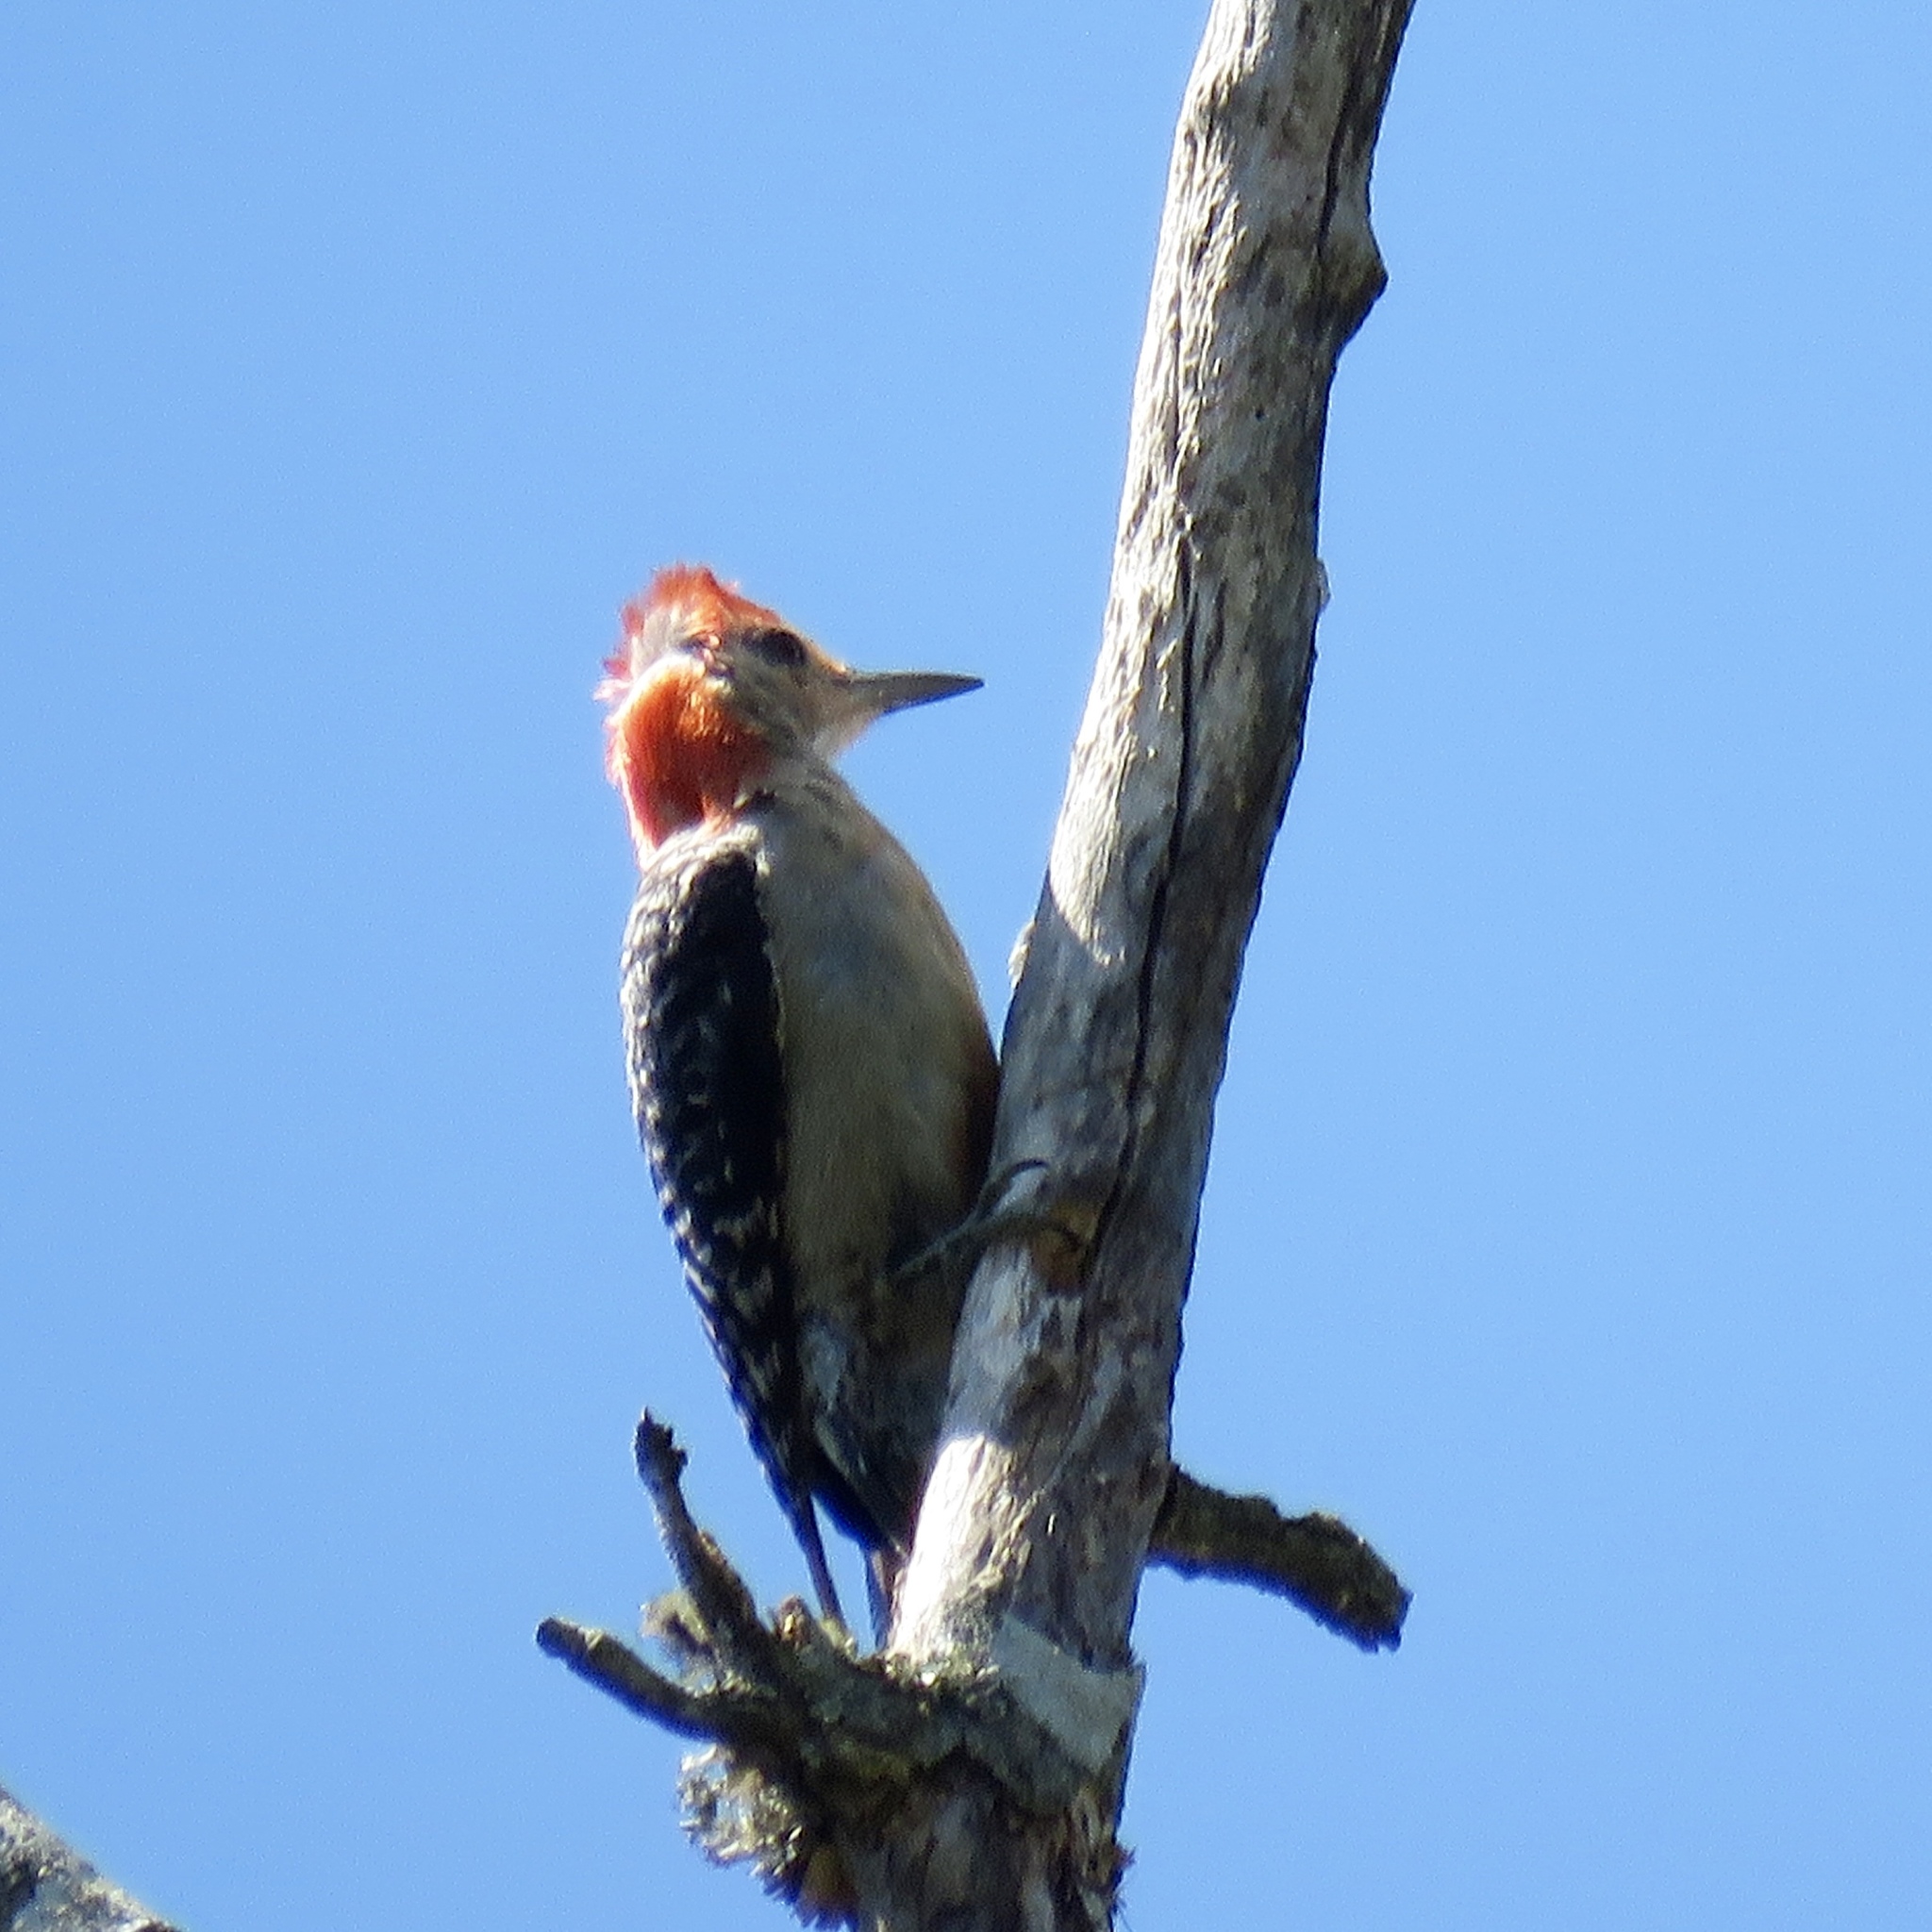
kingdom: Animalia
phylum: Chordata
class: Aves
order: Piciformes
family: Picidae
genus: Melanerpes
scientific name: Melanerpes carolinus
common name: Red-bellied woodpecker
